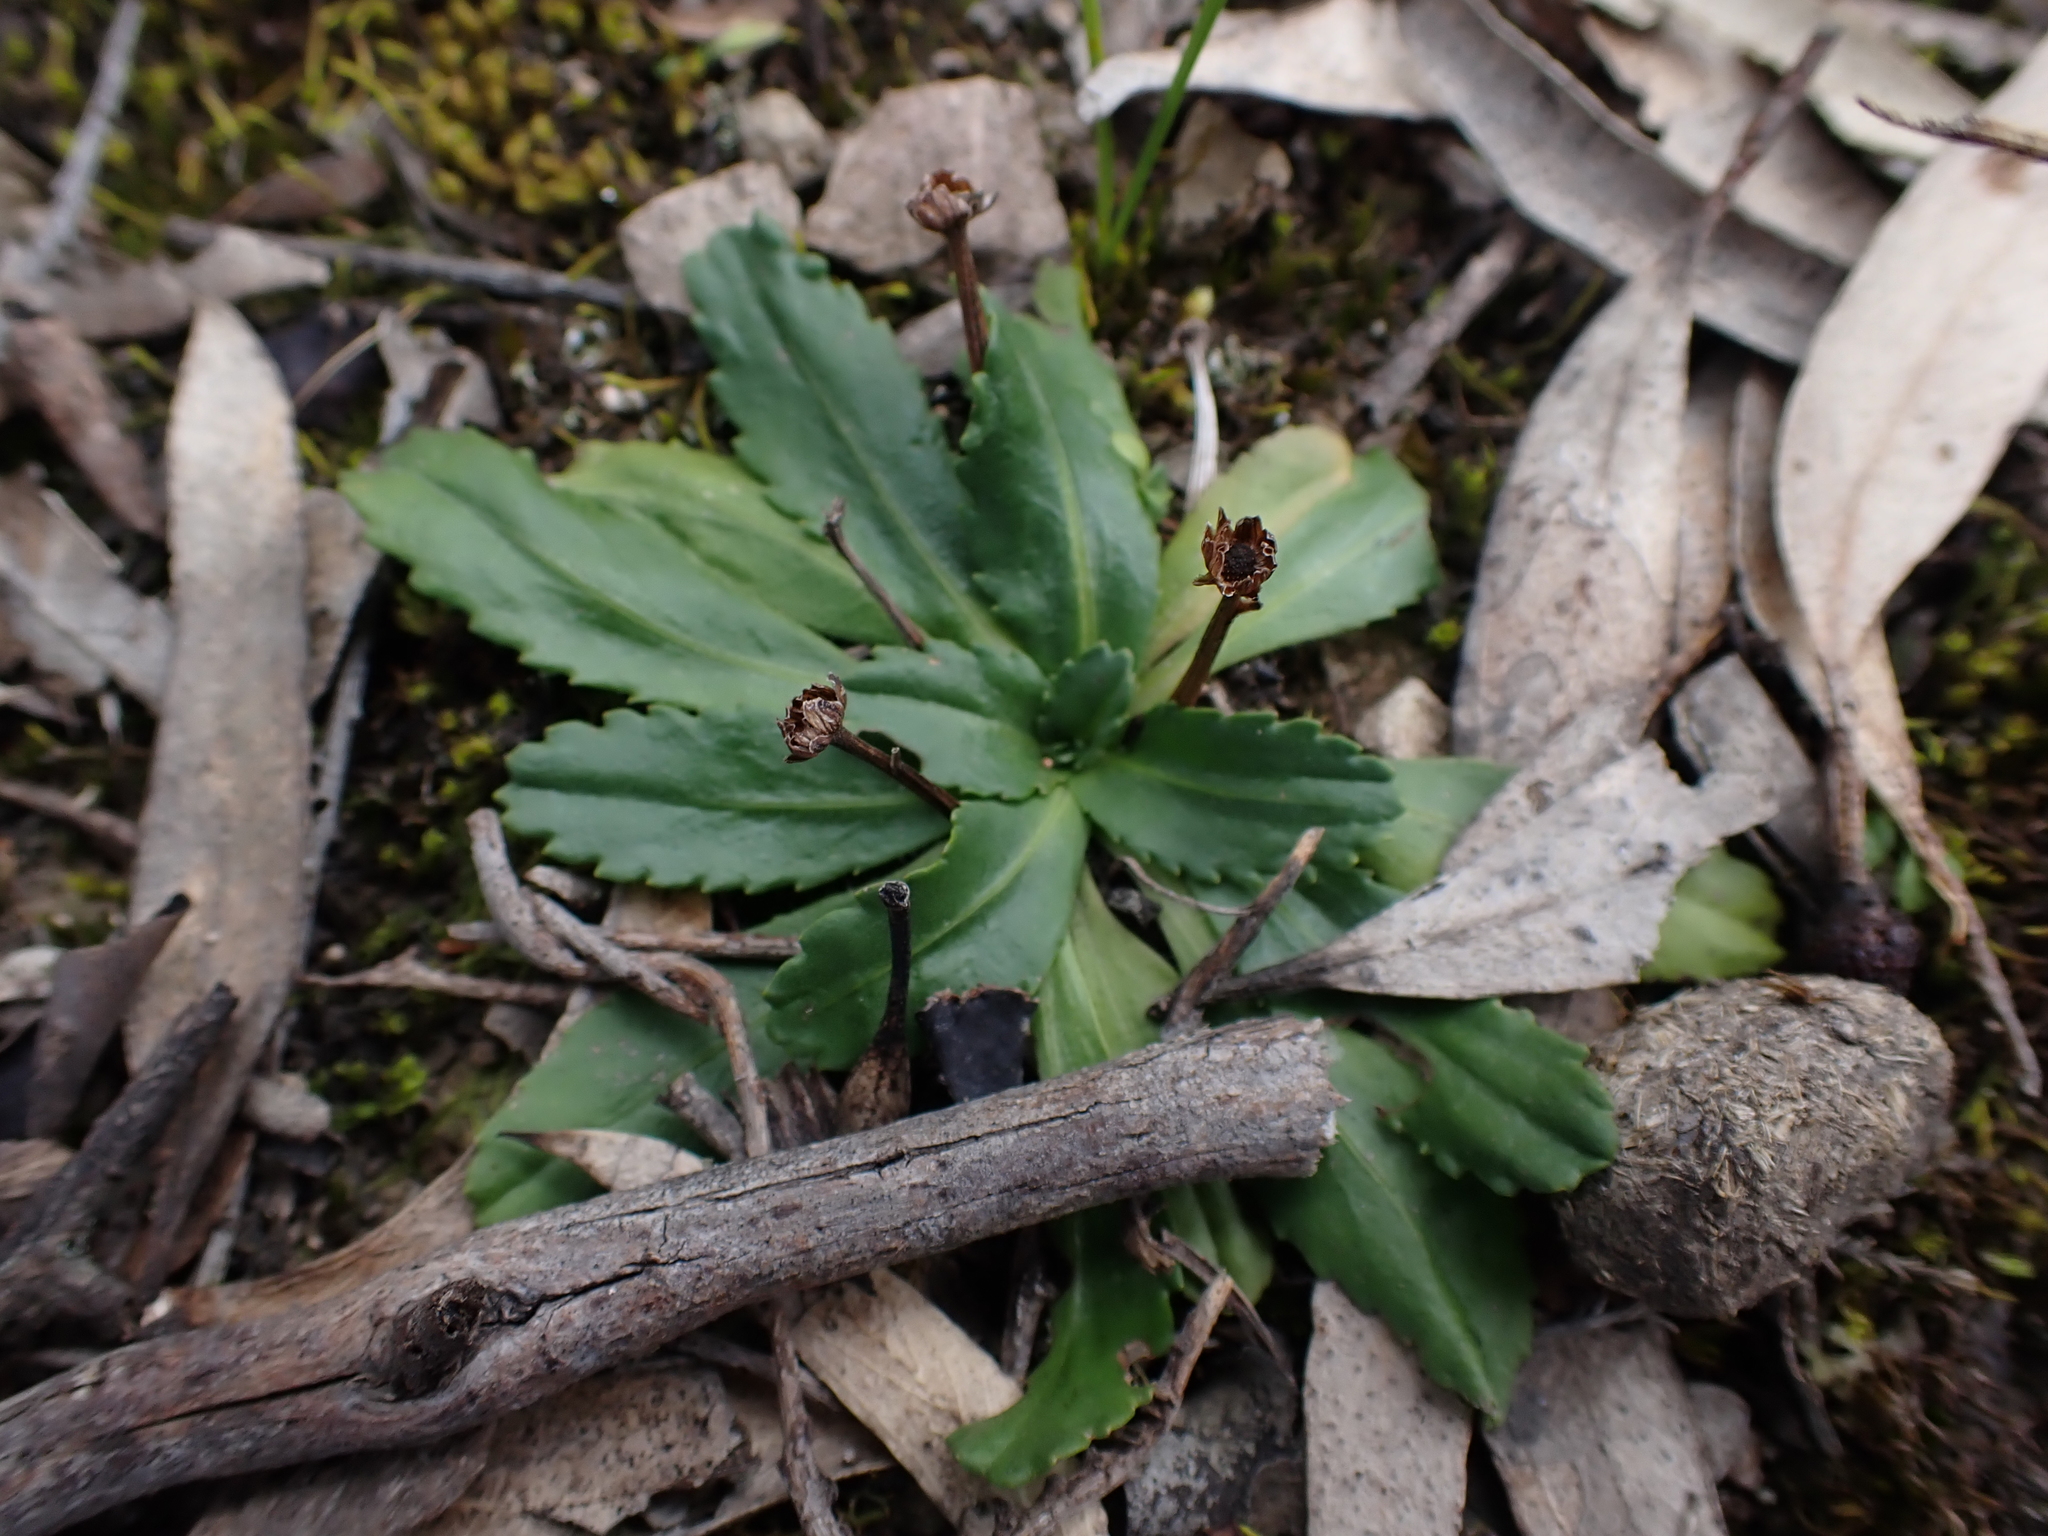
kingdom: Plantae
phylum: Tracheophyta
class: Magnoliopsida
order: Asterales
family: Asteraceae
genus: Solenogyne
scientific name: Solenogyne dominii
